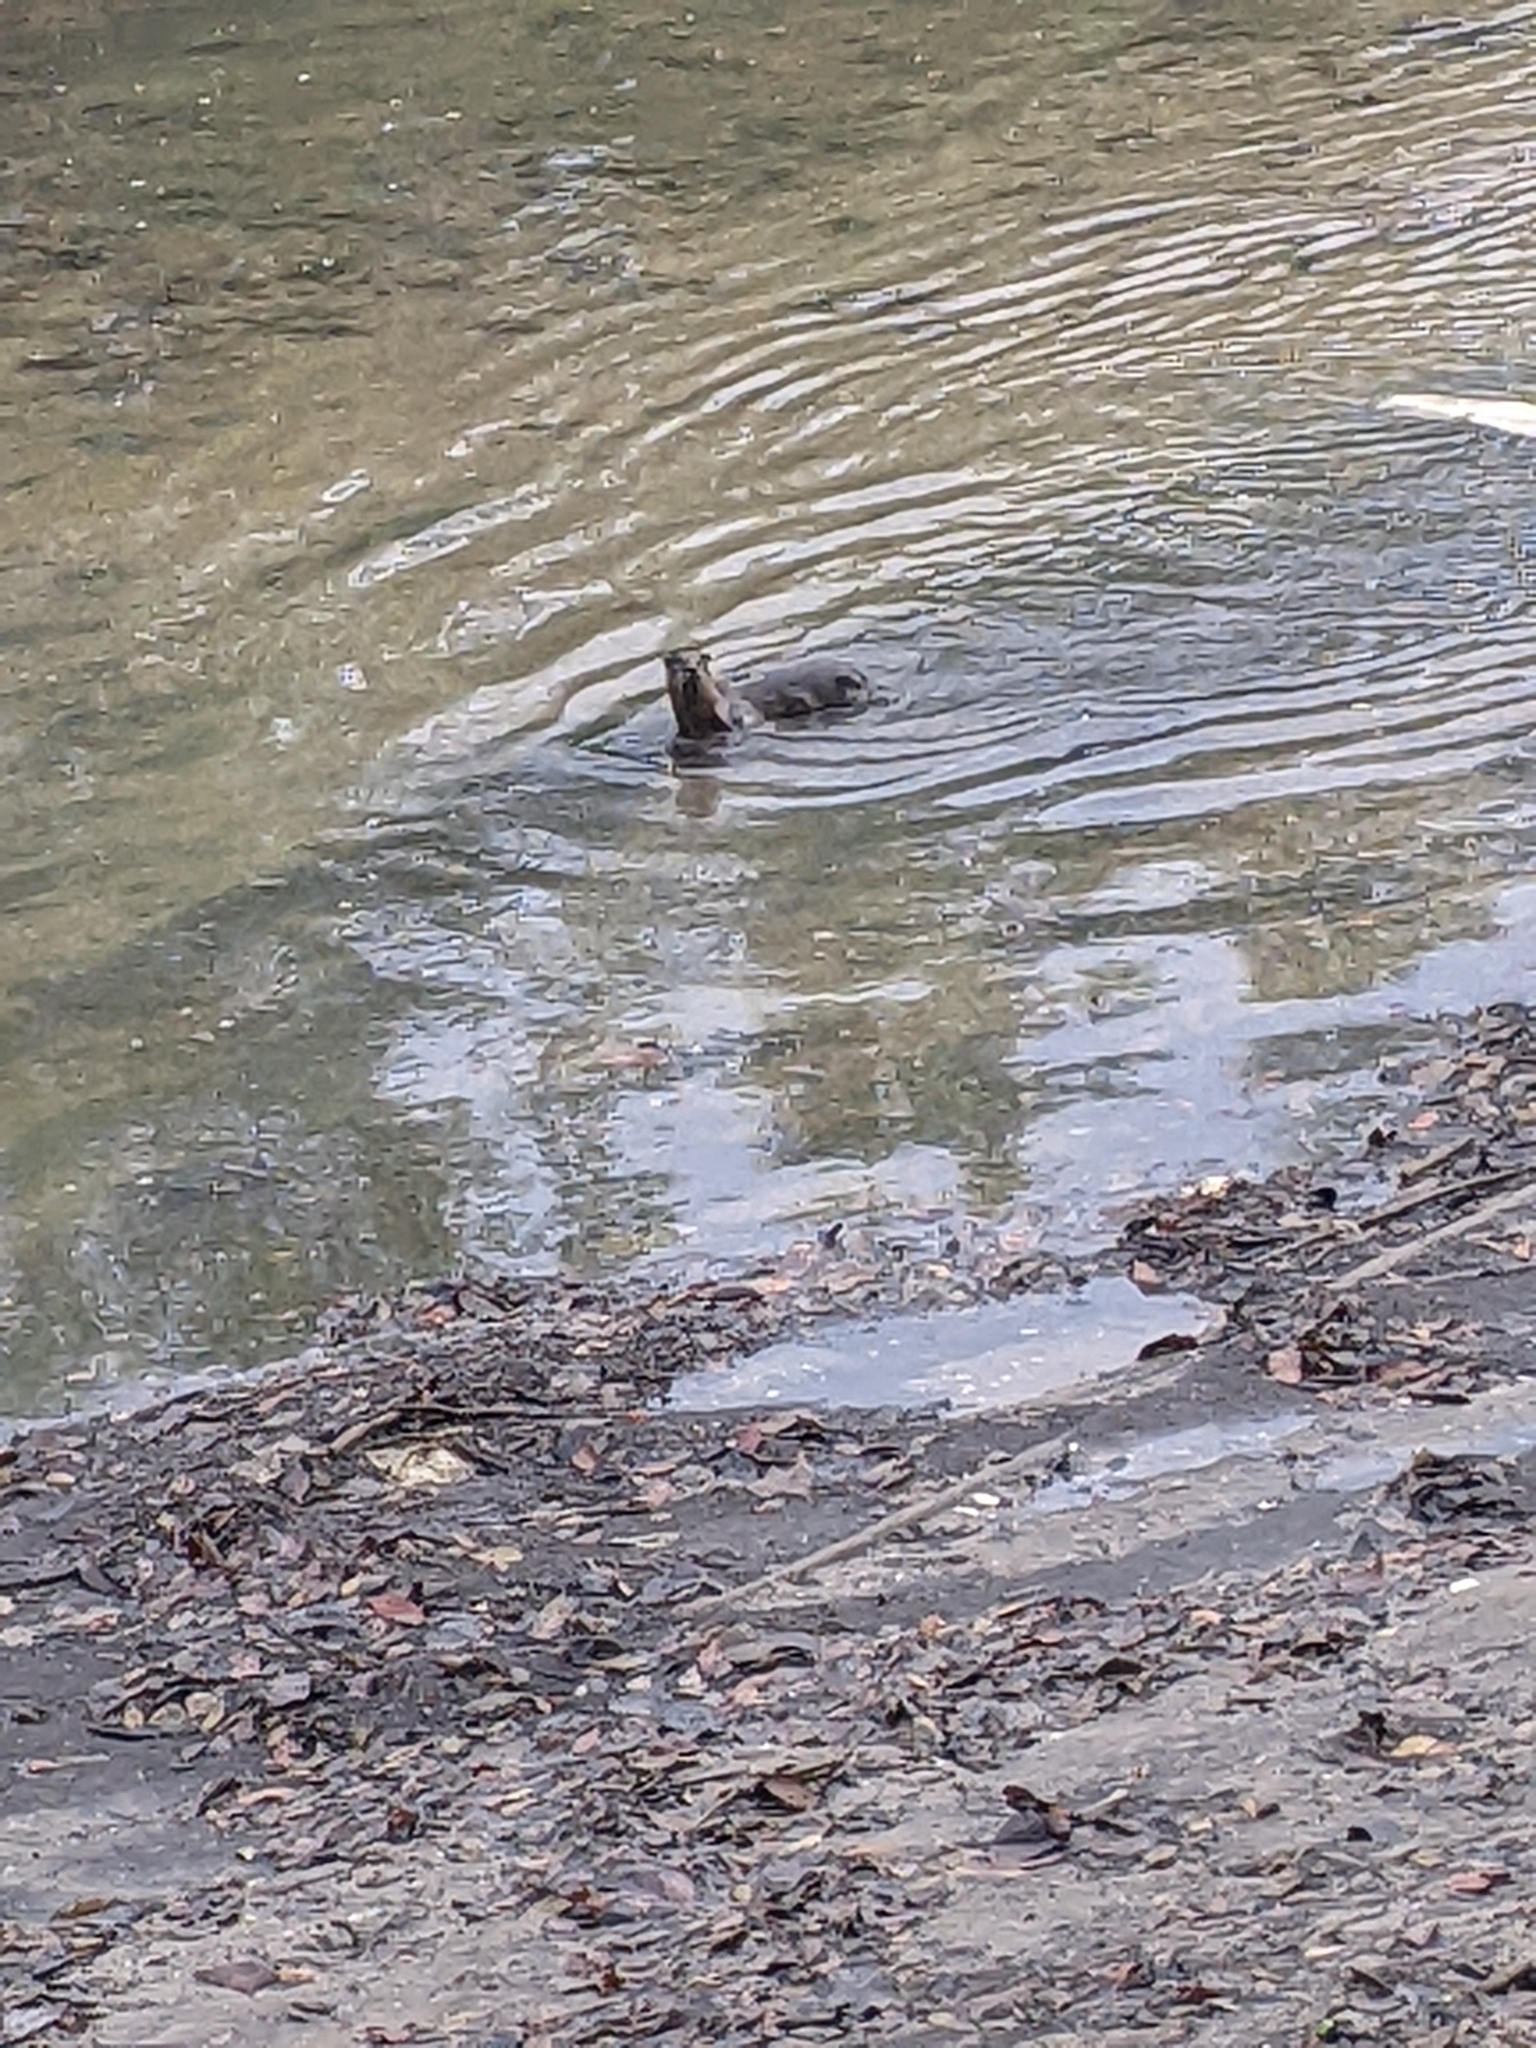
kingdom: Animalia
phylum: Chordata
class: Mammalia
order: Carnivora
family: Mustelidae
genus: Lutrogale
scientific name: Lutrogale perspicillata
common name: Smooth-coated otter
